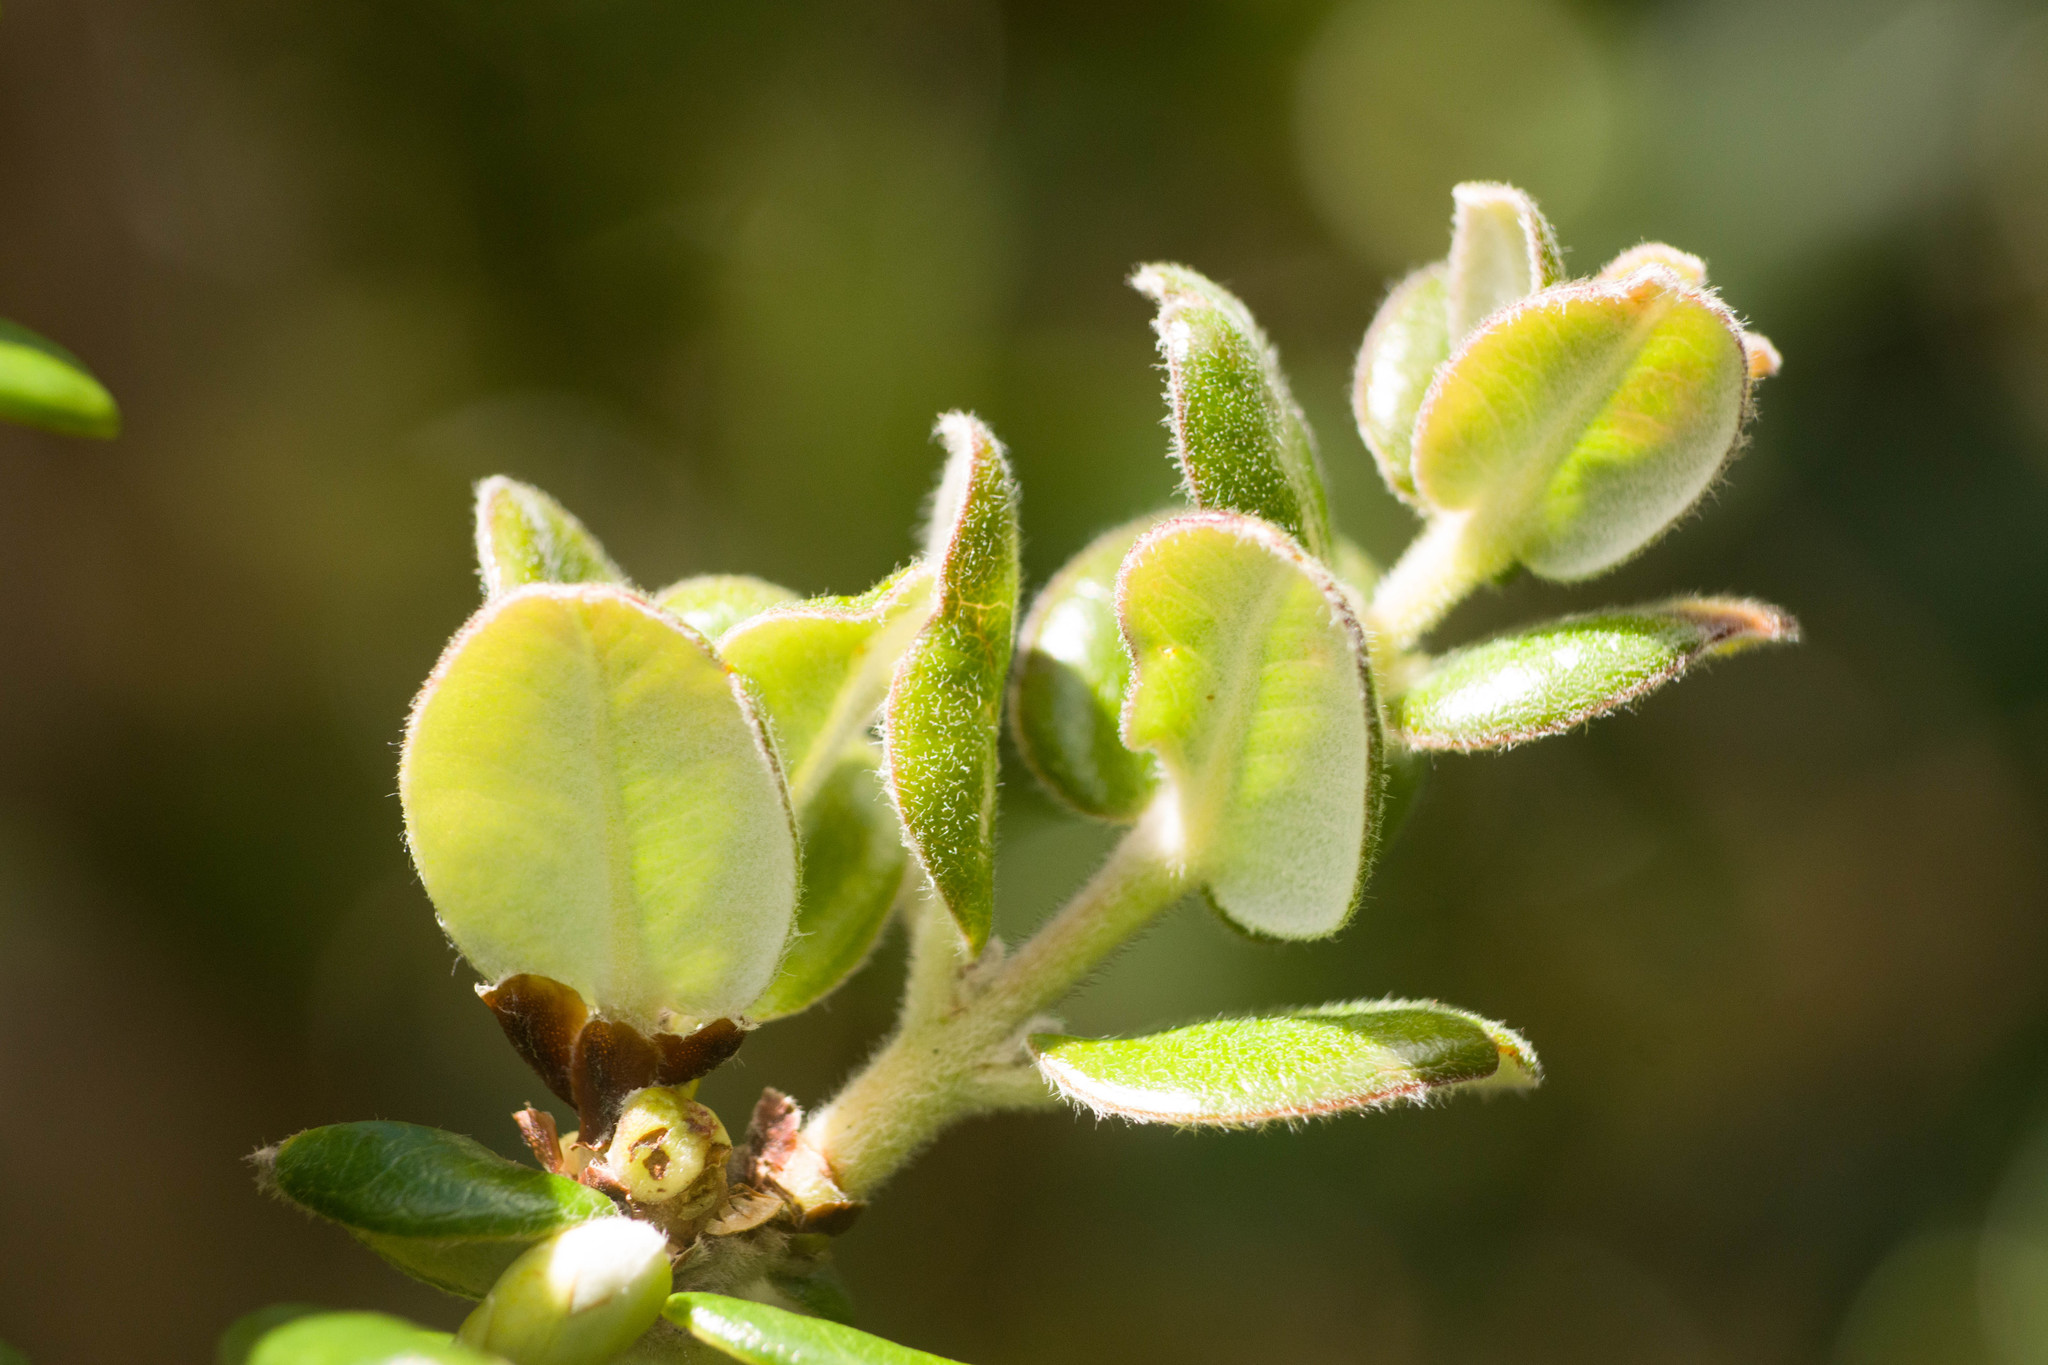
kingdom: Plantae
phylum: Tracheophyta
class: Magnoliopsida
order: Myrtales
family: Myrtaceae
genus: Metrosideros
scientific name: Metrosideros polymorpha
